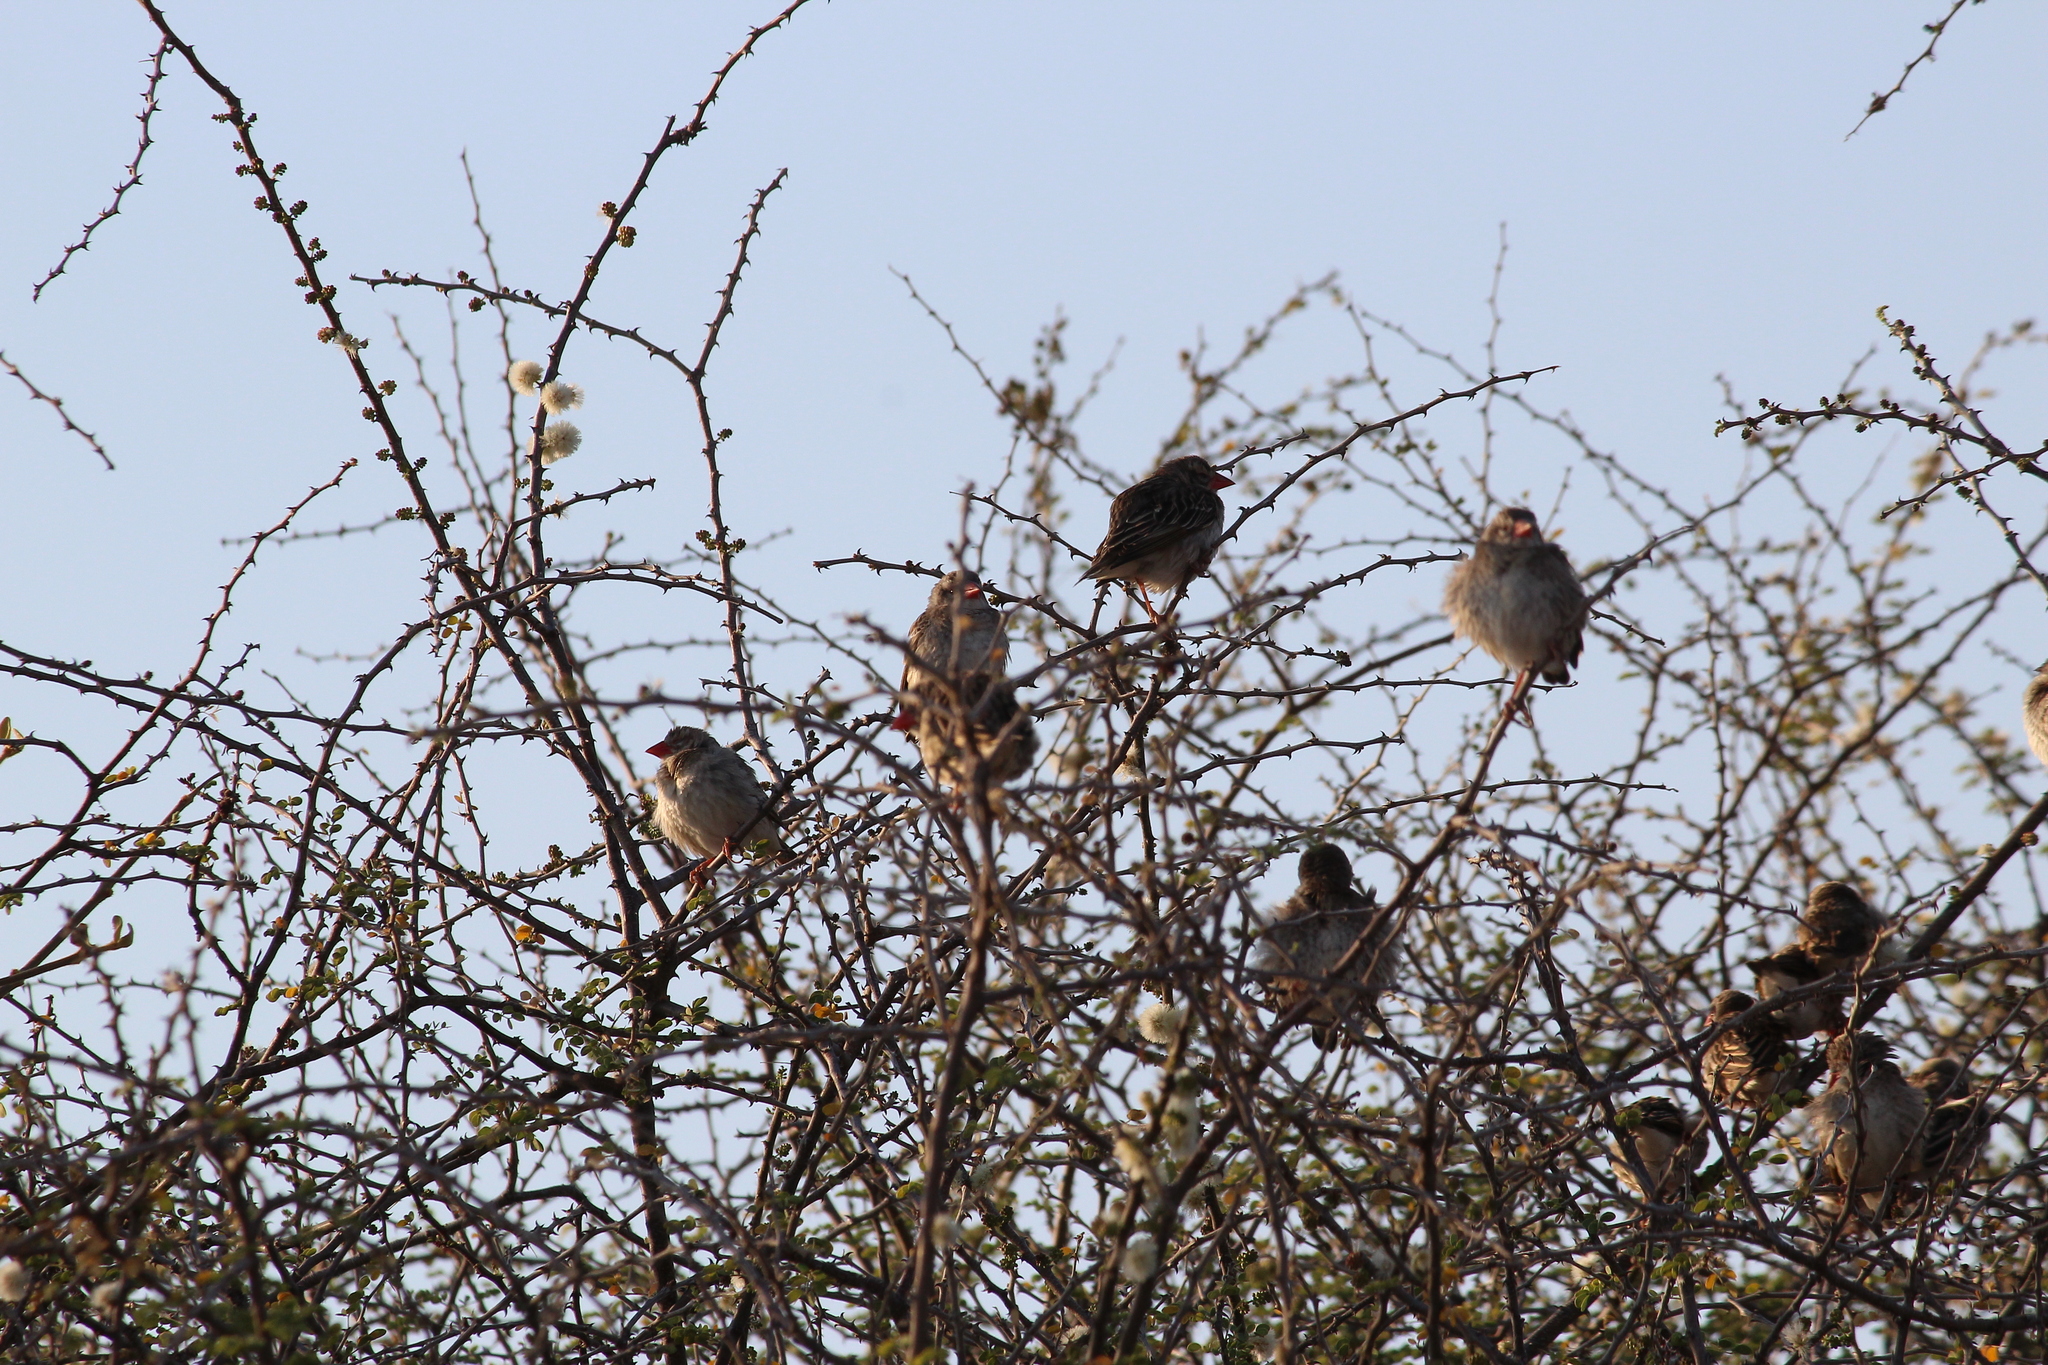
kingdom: Animalia
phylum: Chordata
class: Aves
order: Passeriformes
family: Ploceidae
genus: Quelea
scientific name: Quelea quelea
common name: Red-billed quelea
